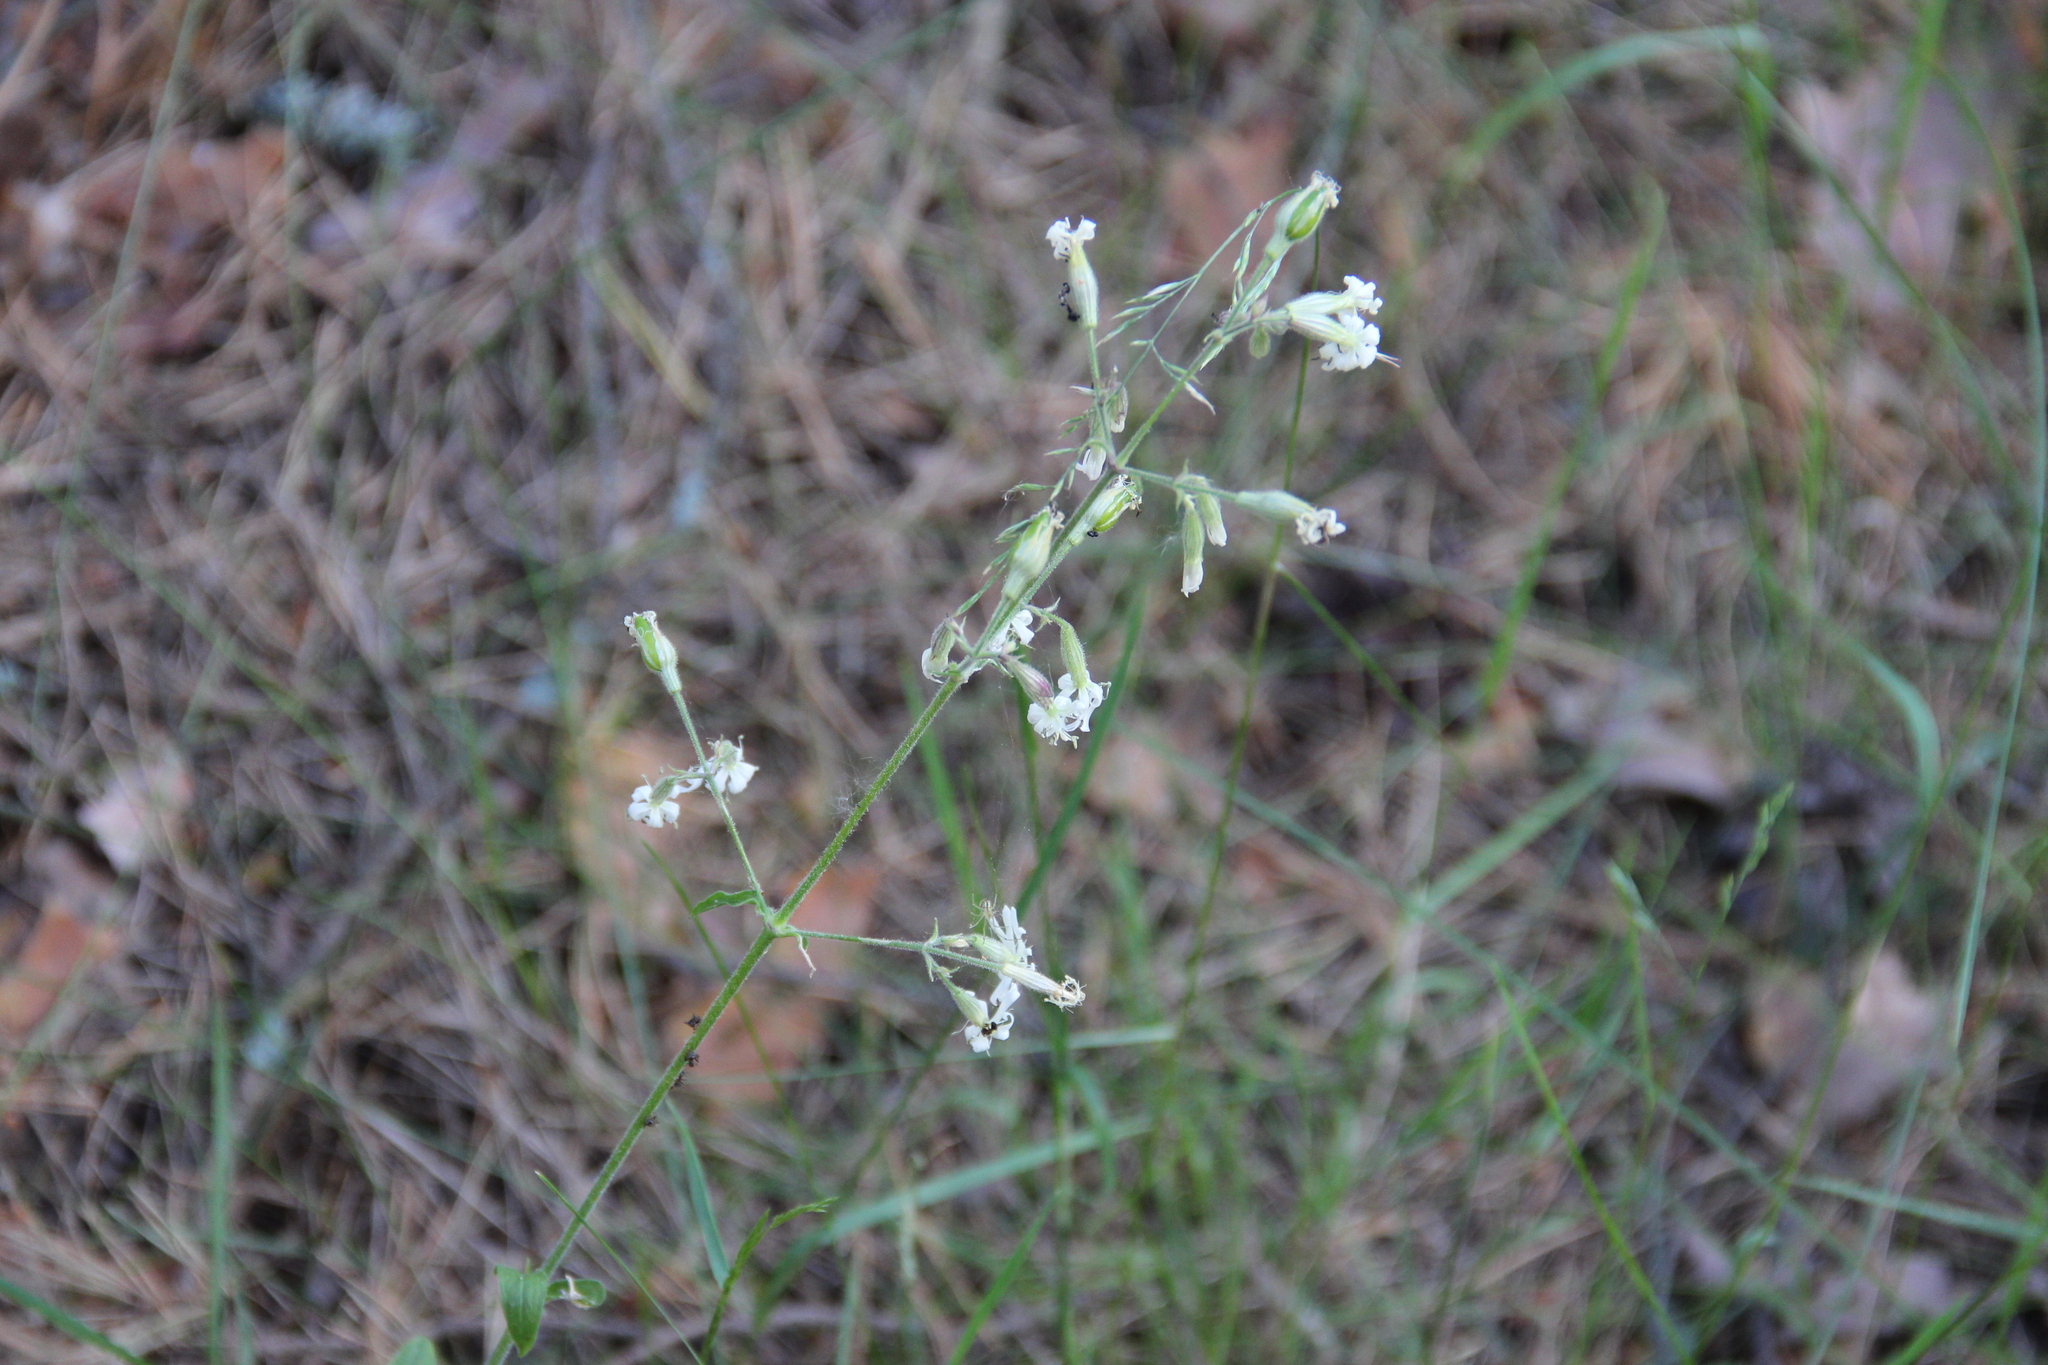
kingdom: Plantae
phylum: Tracheophyta
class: Magnoliopsida
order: Caryophyllales
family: Caryophyllaceae
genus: Silene
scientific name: Silene nutans
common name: Nottingham catchfly
